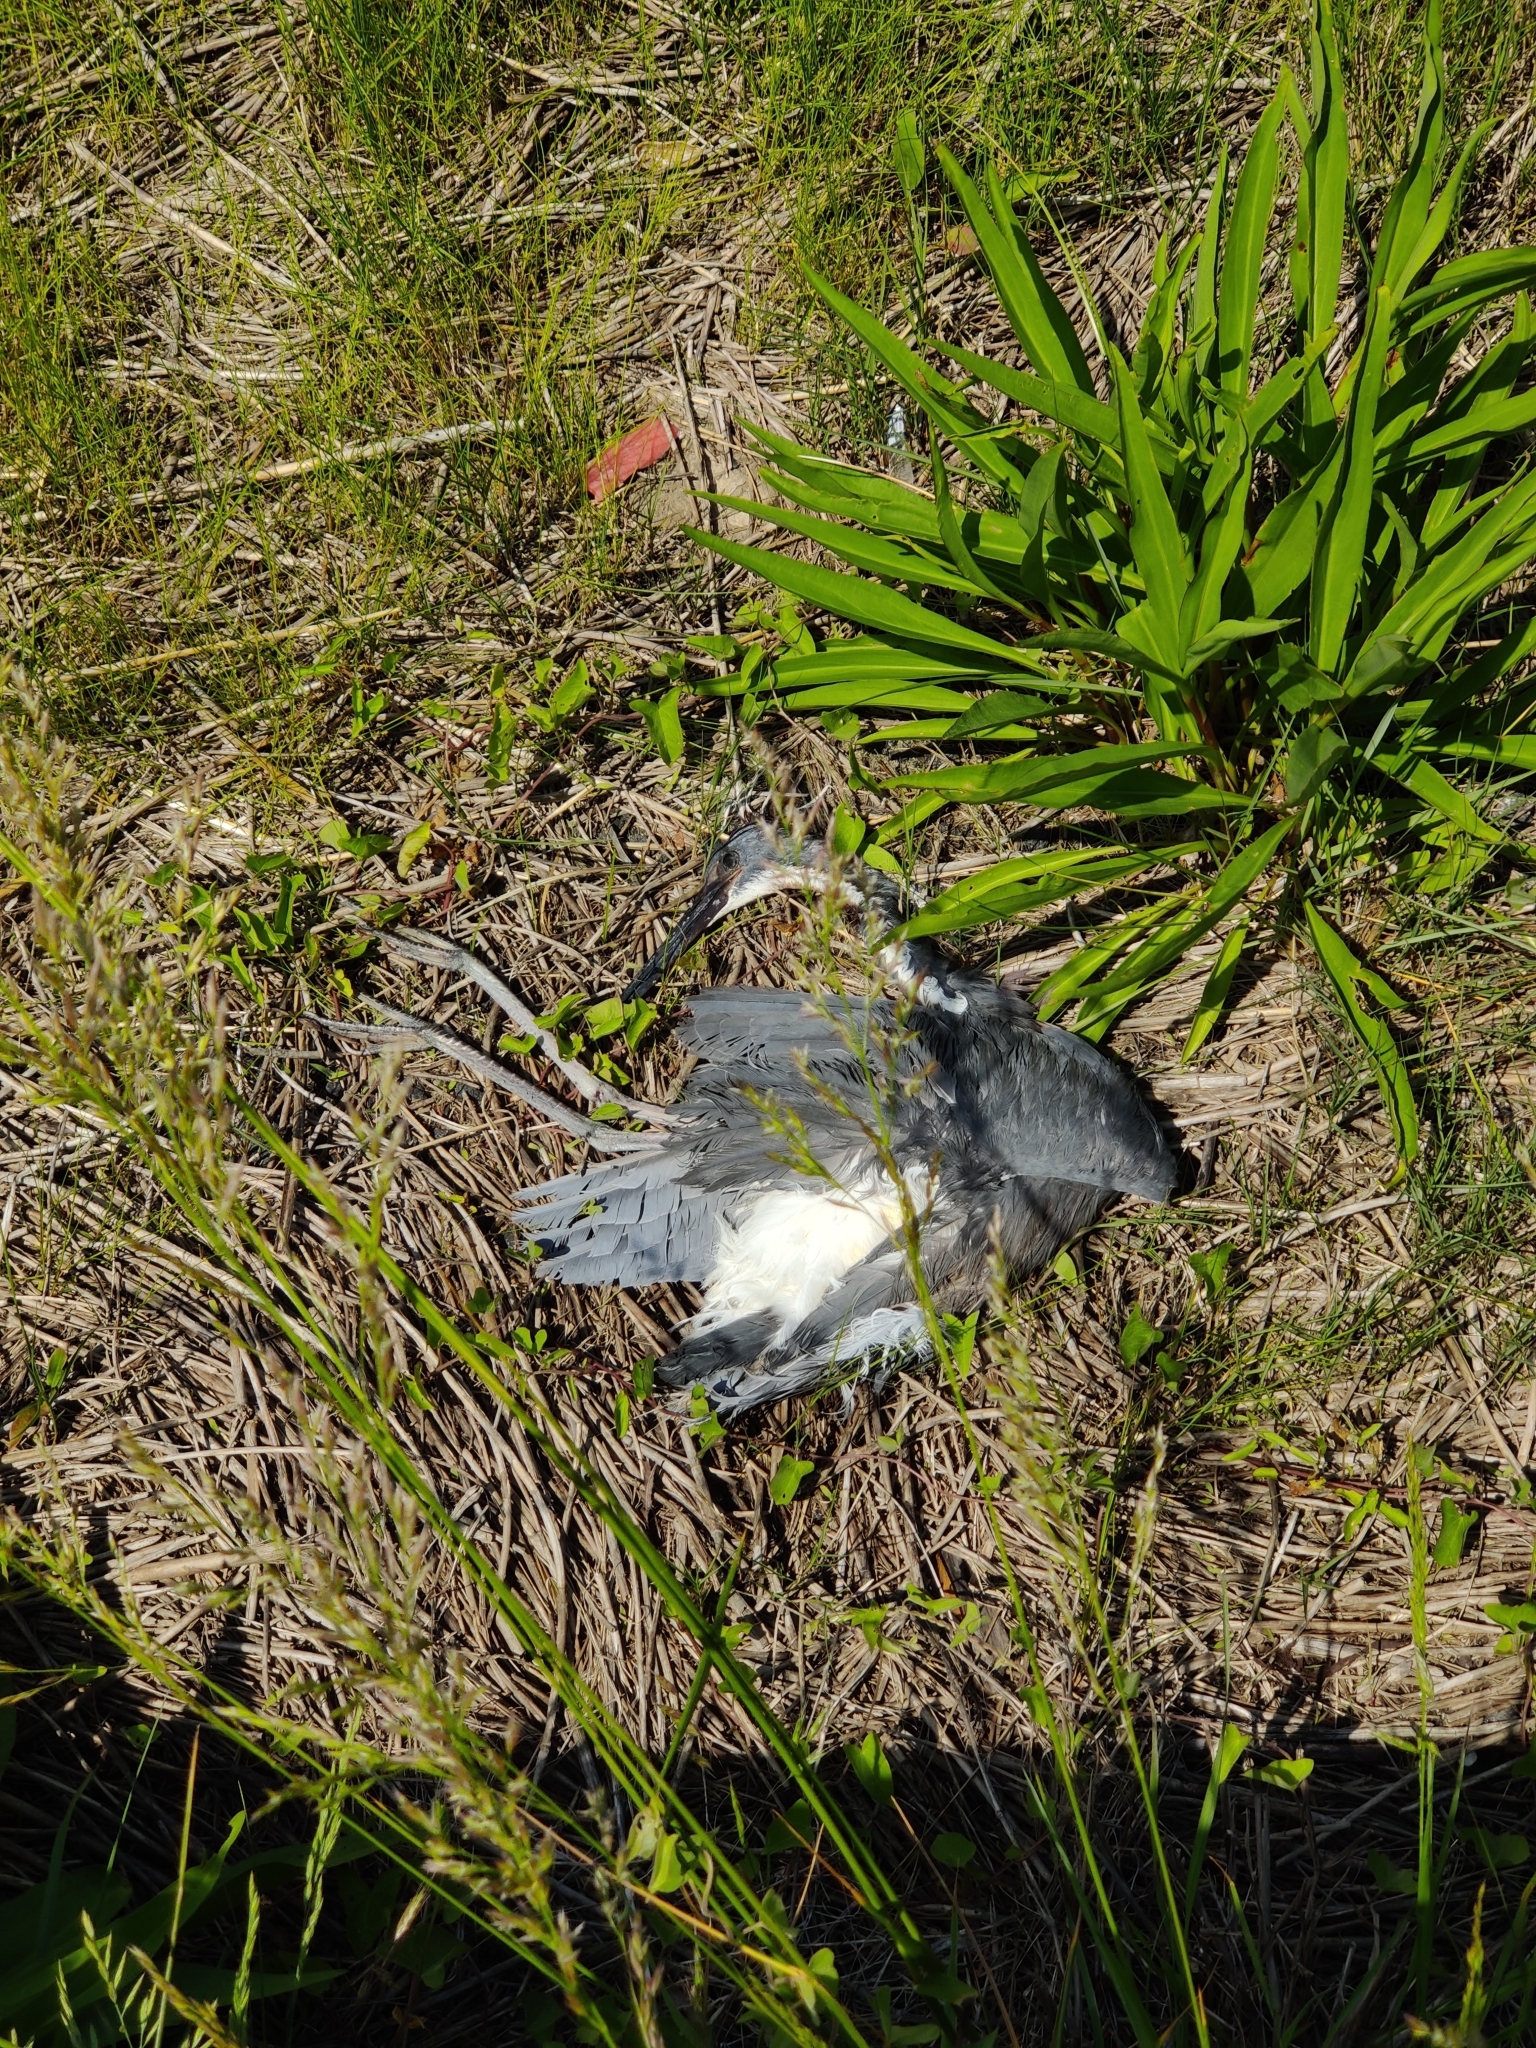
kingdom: Animalia
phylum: Chordata
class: Aves
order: Pelecaniformes
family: Ardeidae
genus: Egretta
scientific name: Egretta tricolor
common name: Tricolored heron
